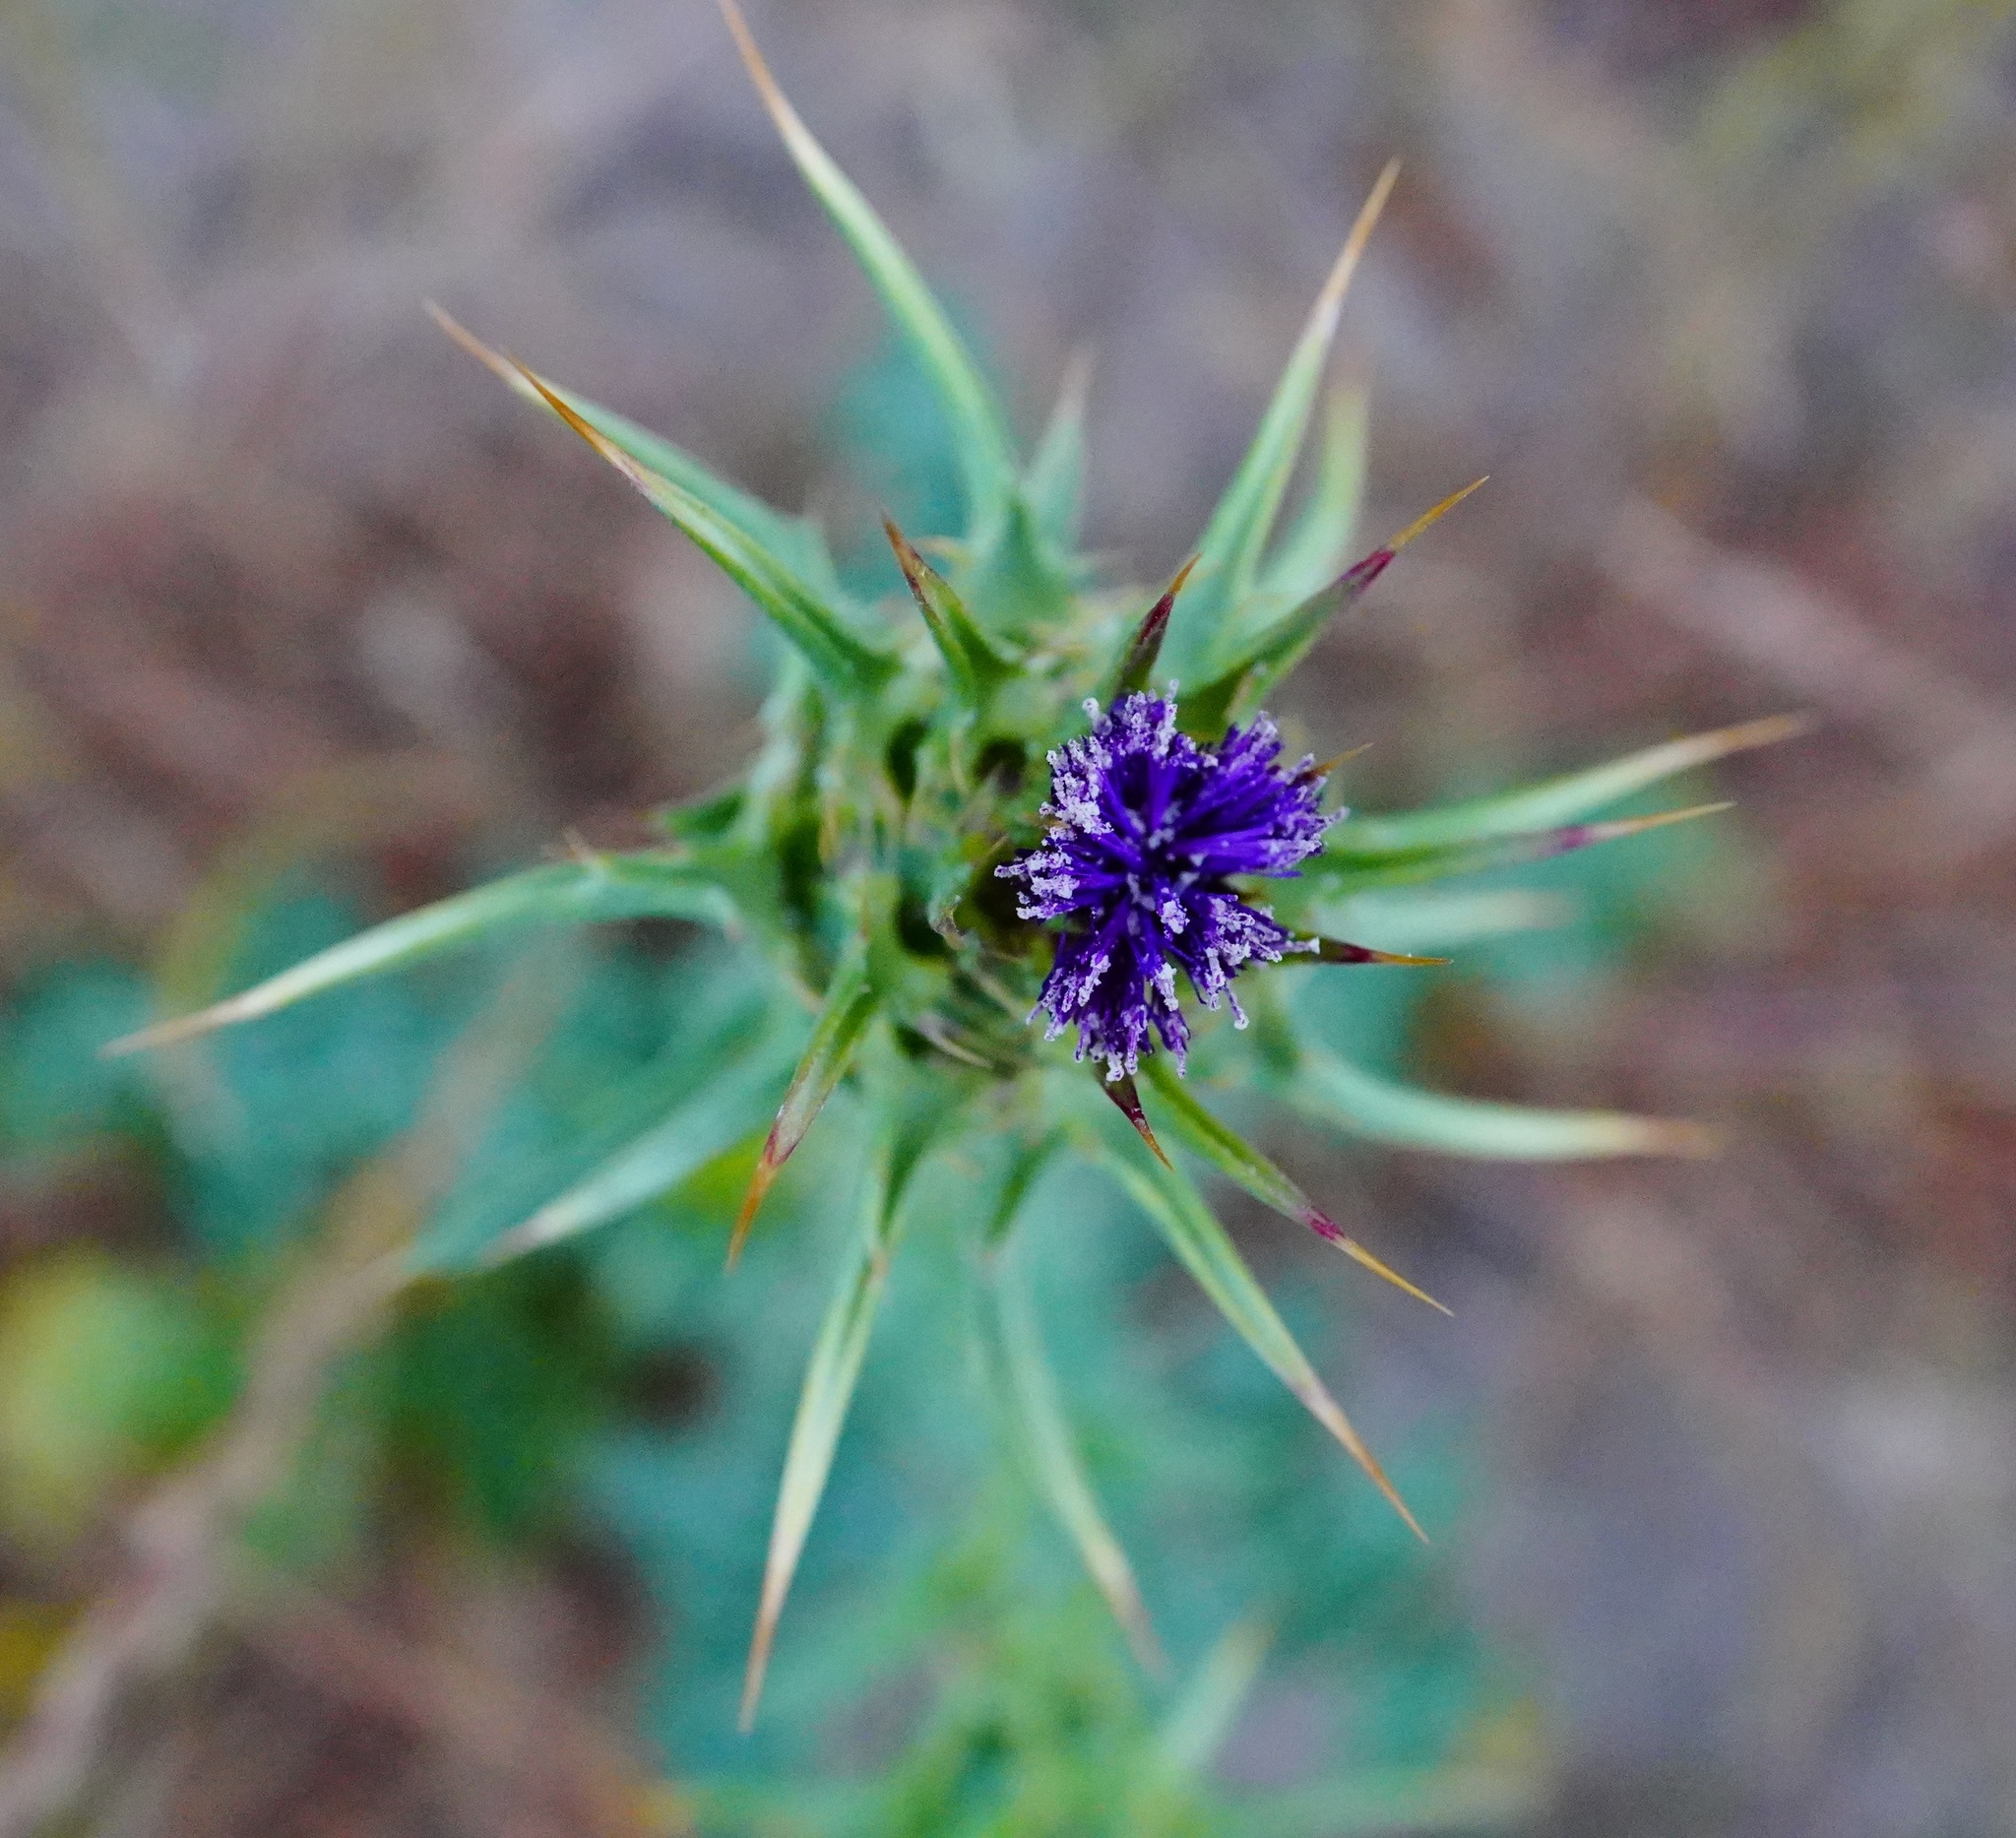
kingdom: Plantae
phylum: Tracheophyta
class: Magnoliopsida
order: Asterales
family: Asteraceae
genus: Silybum
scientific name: Silybum marianum
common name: Milk thistle
